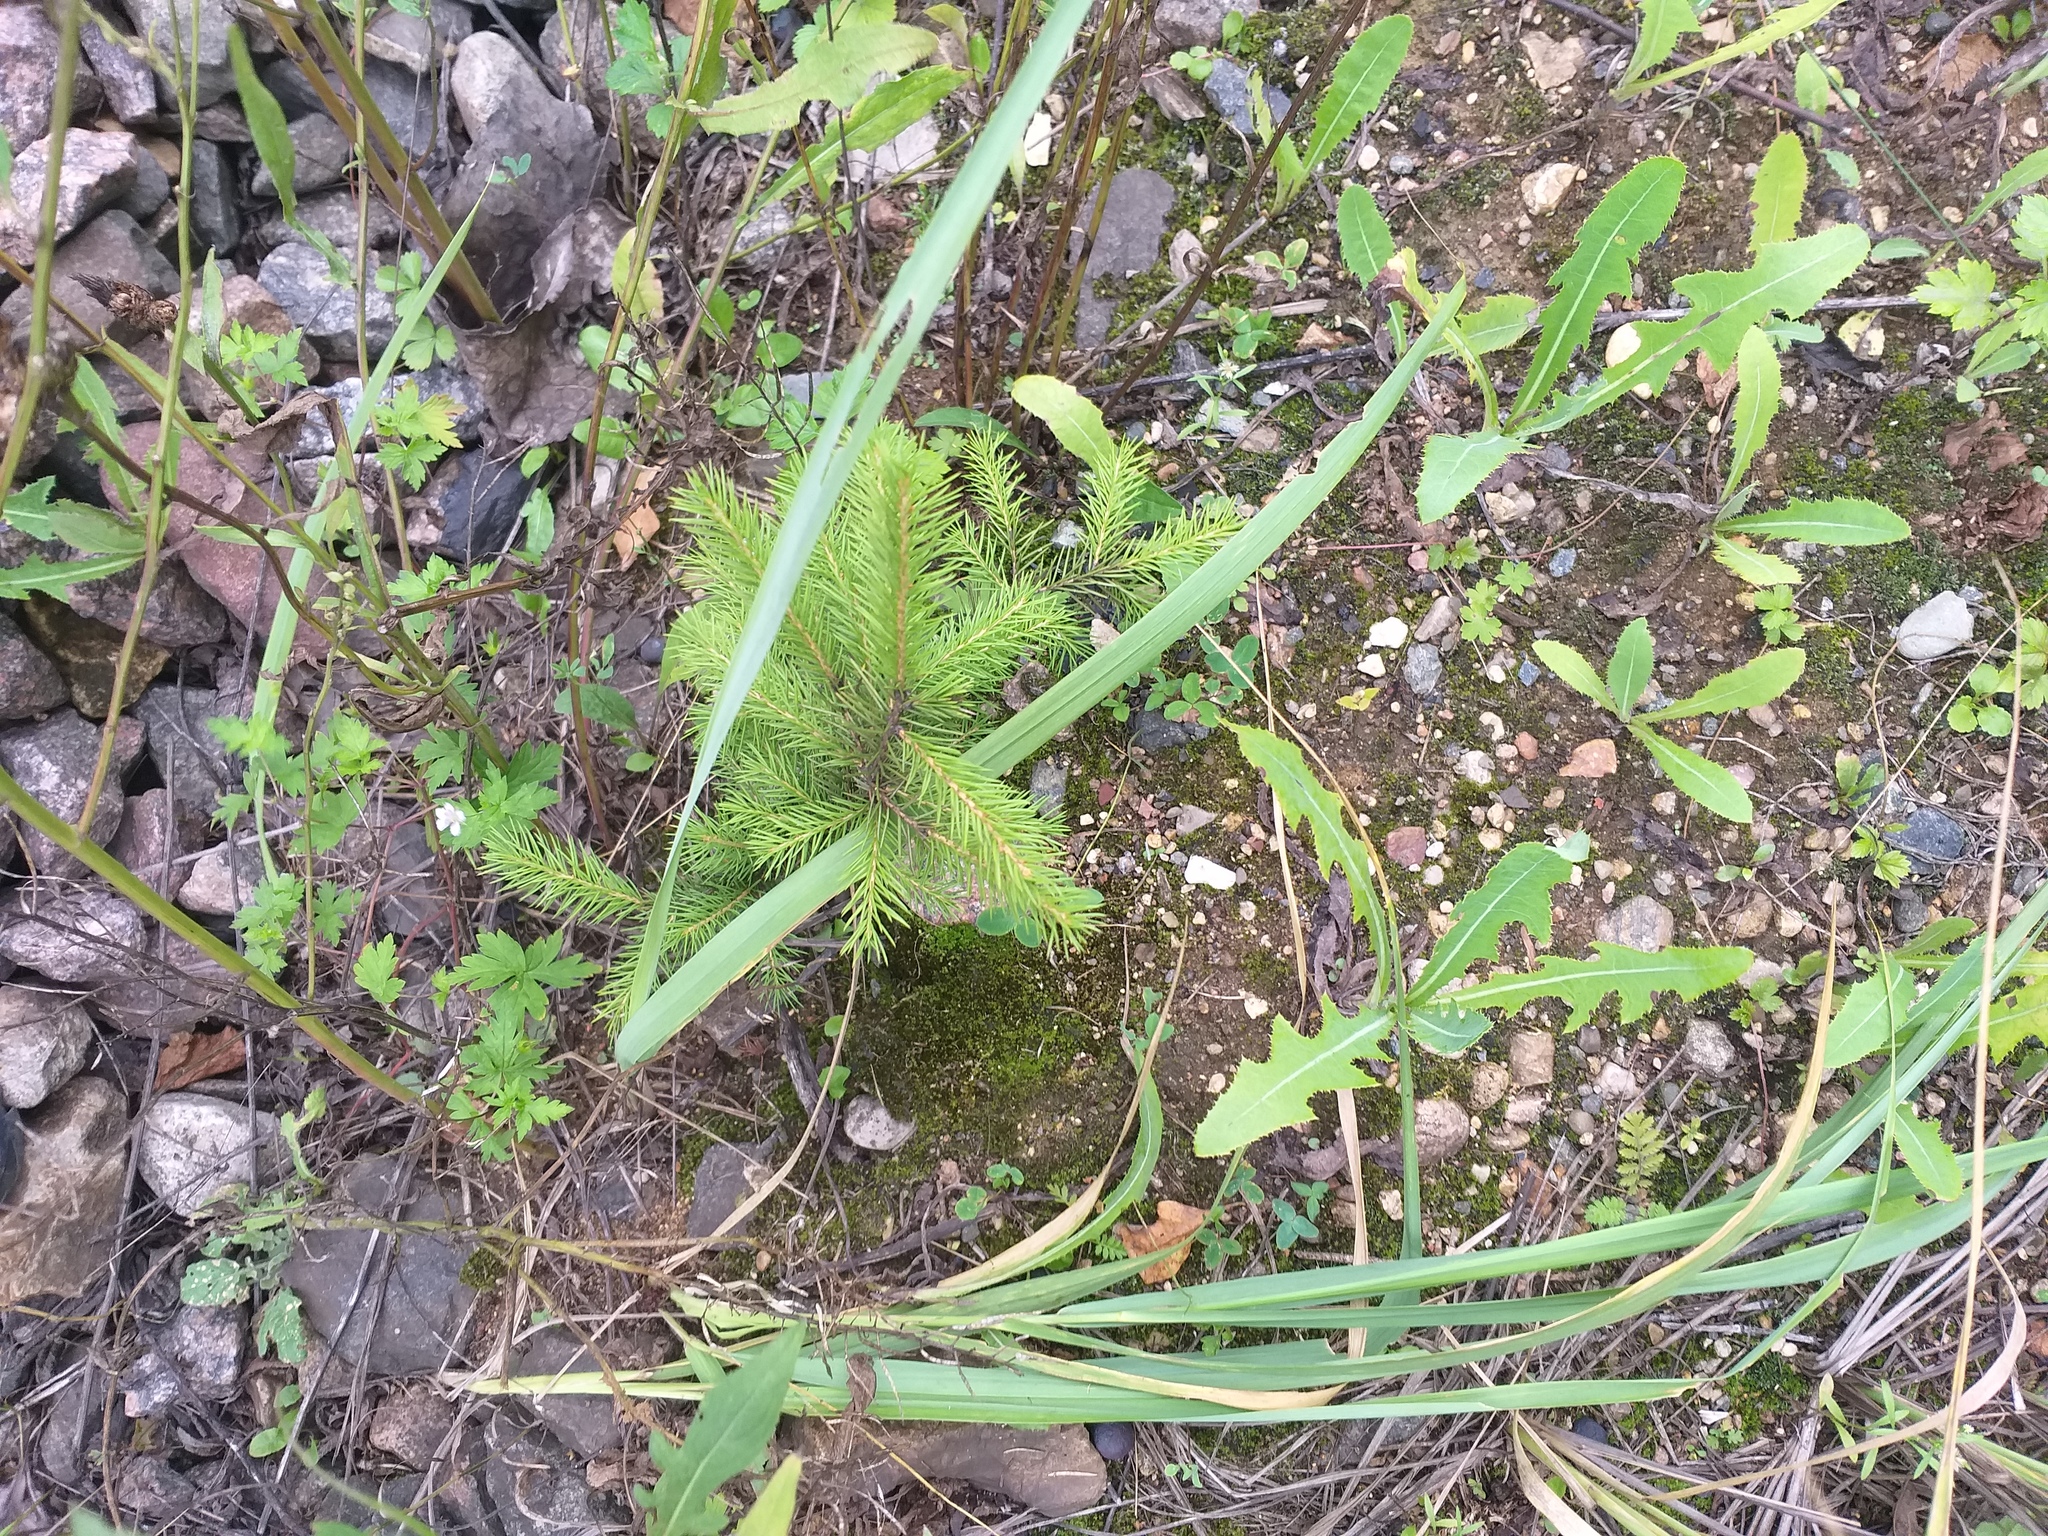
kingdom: Plantae
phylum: Tracheophyta
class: Pinopsida
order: Pinales
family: Pinaceae
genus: Picea
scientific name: Picea abies
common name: Norway spruce
